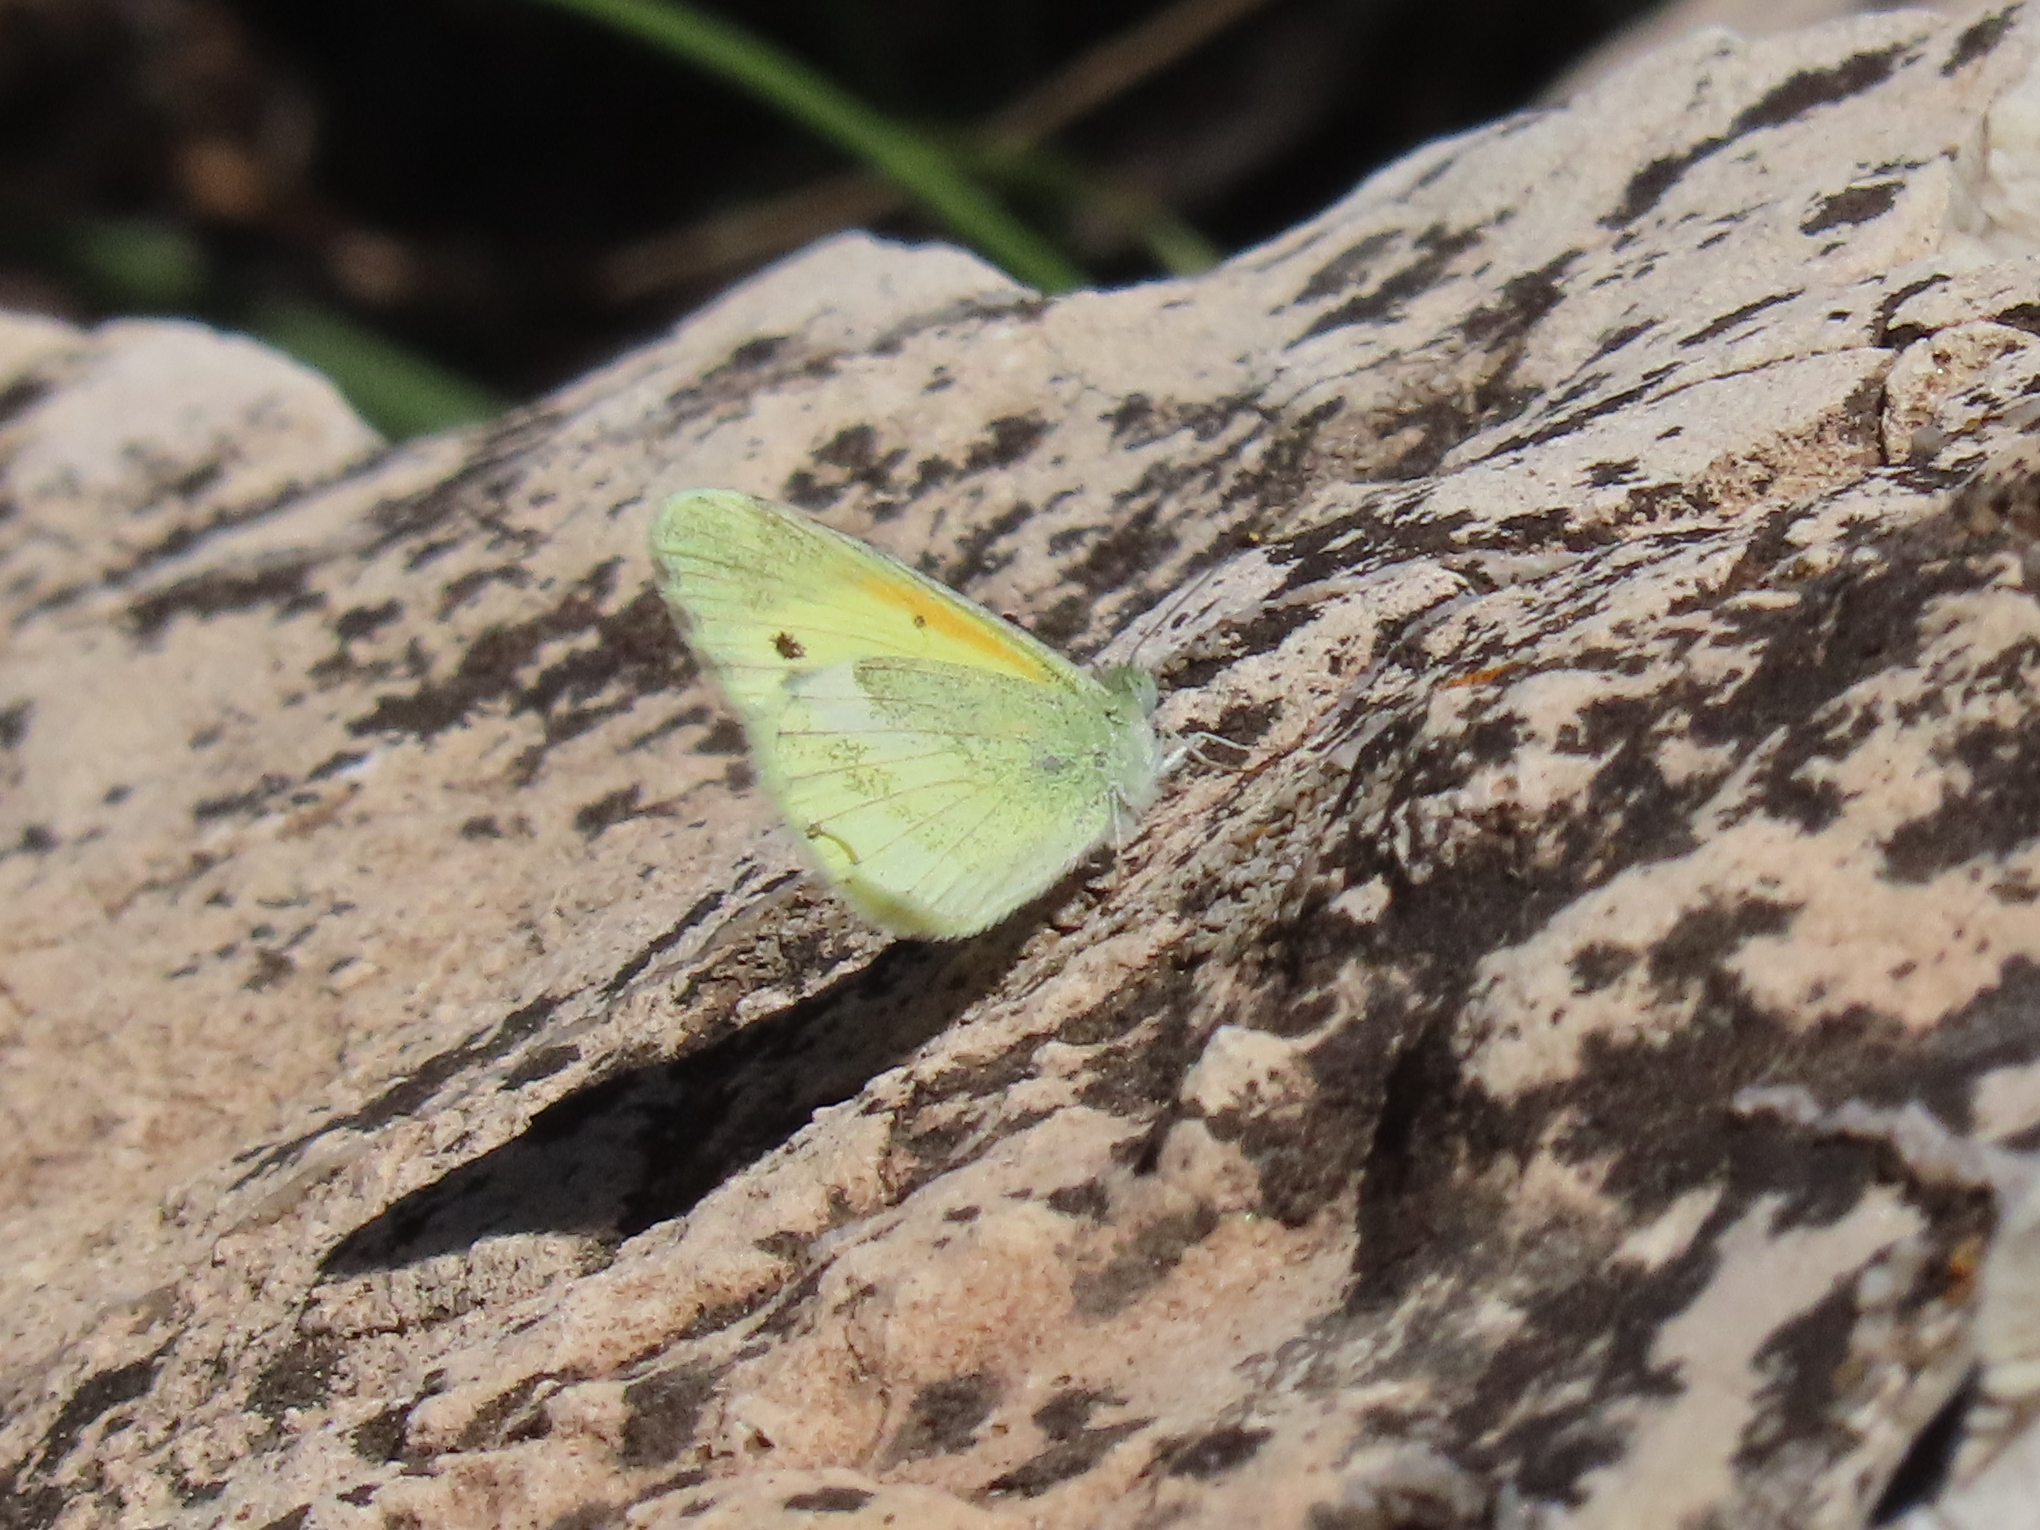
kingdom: Animalia
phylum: Arthropoda
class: Insecta
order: Lepidoptera
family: Pieridae
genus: Nathalis
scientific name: Nathalis iole
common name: Dainty sulphur
